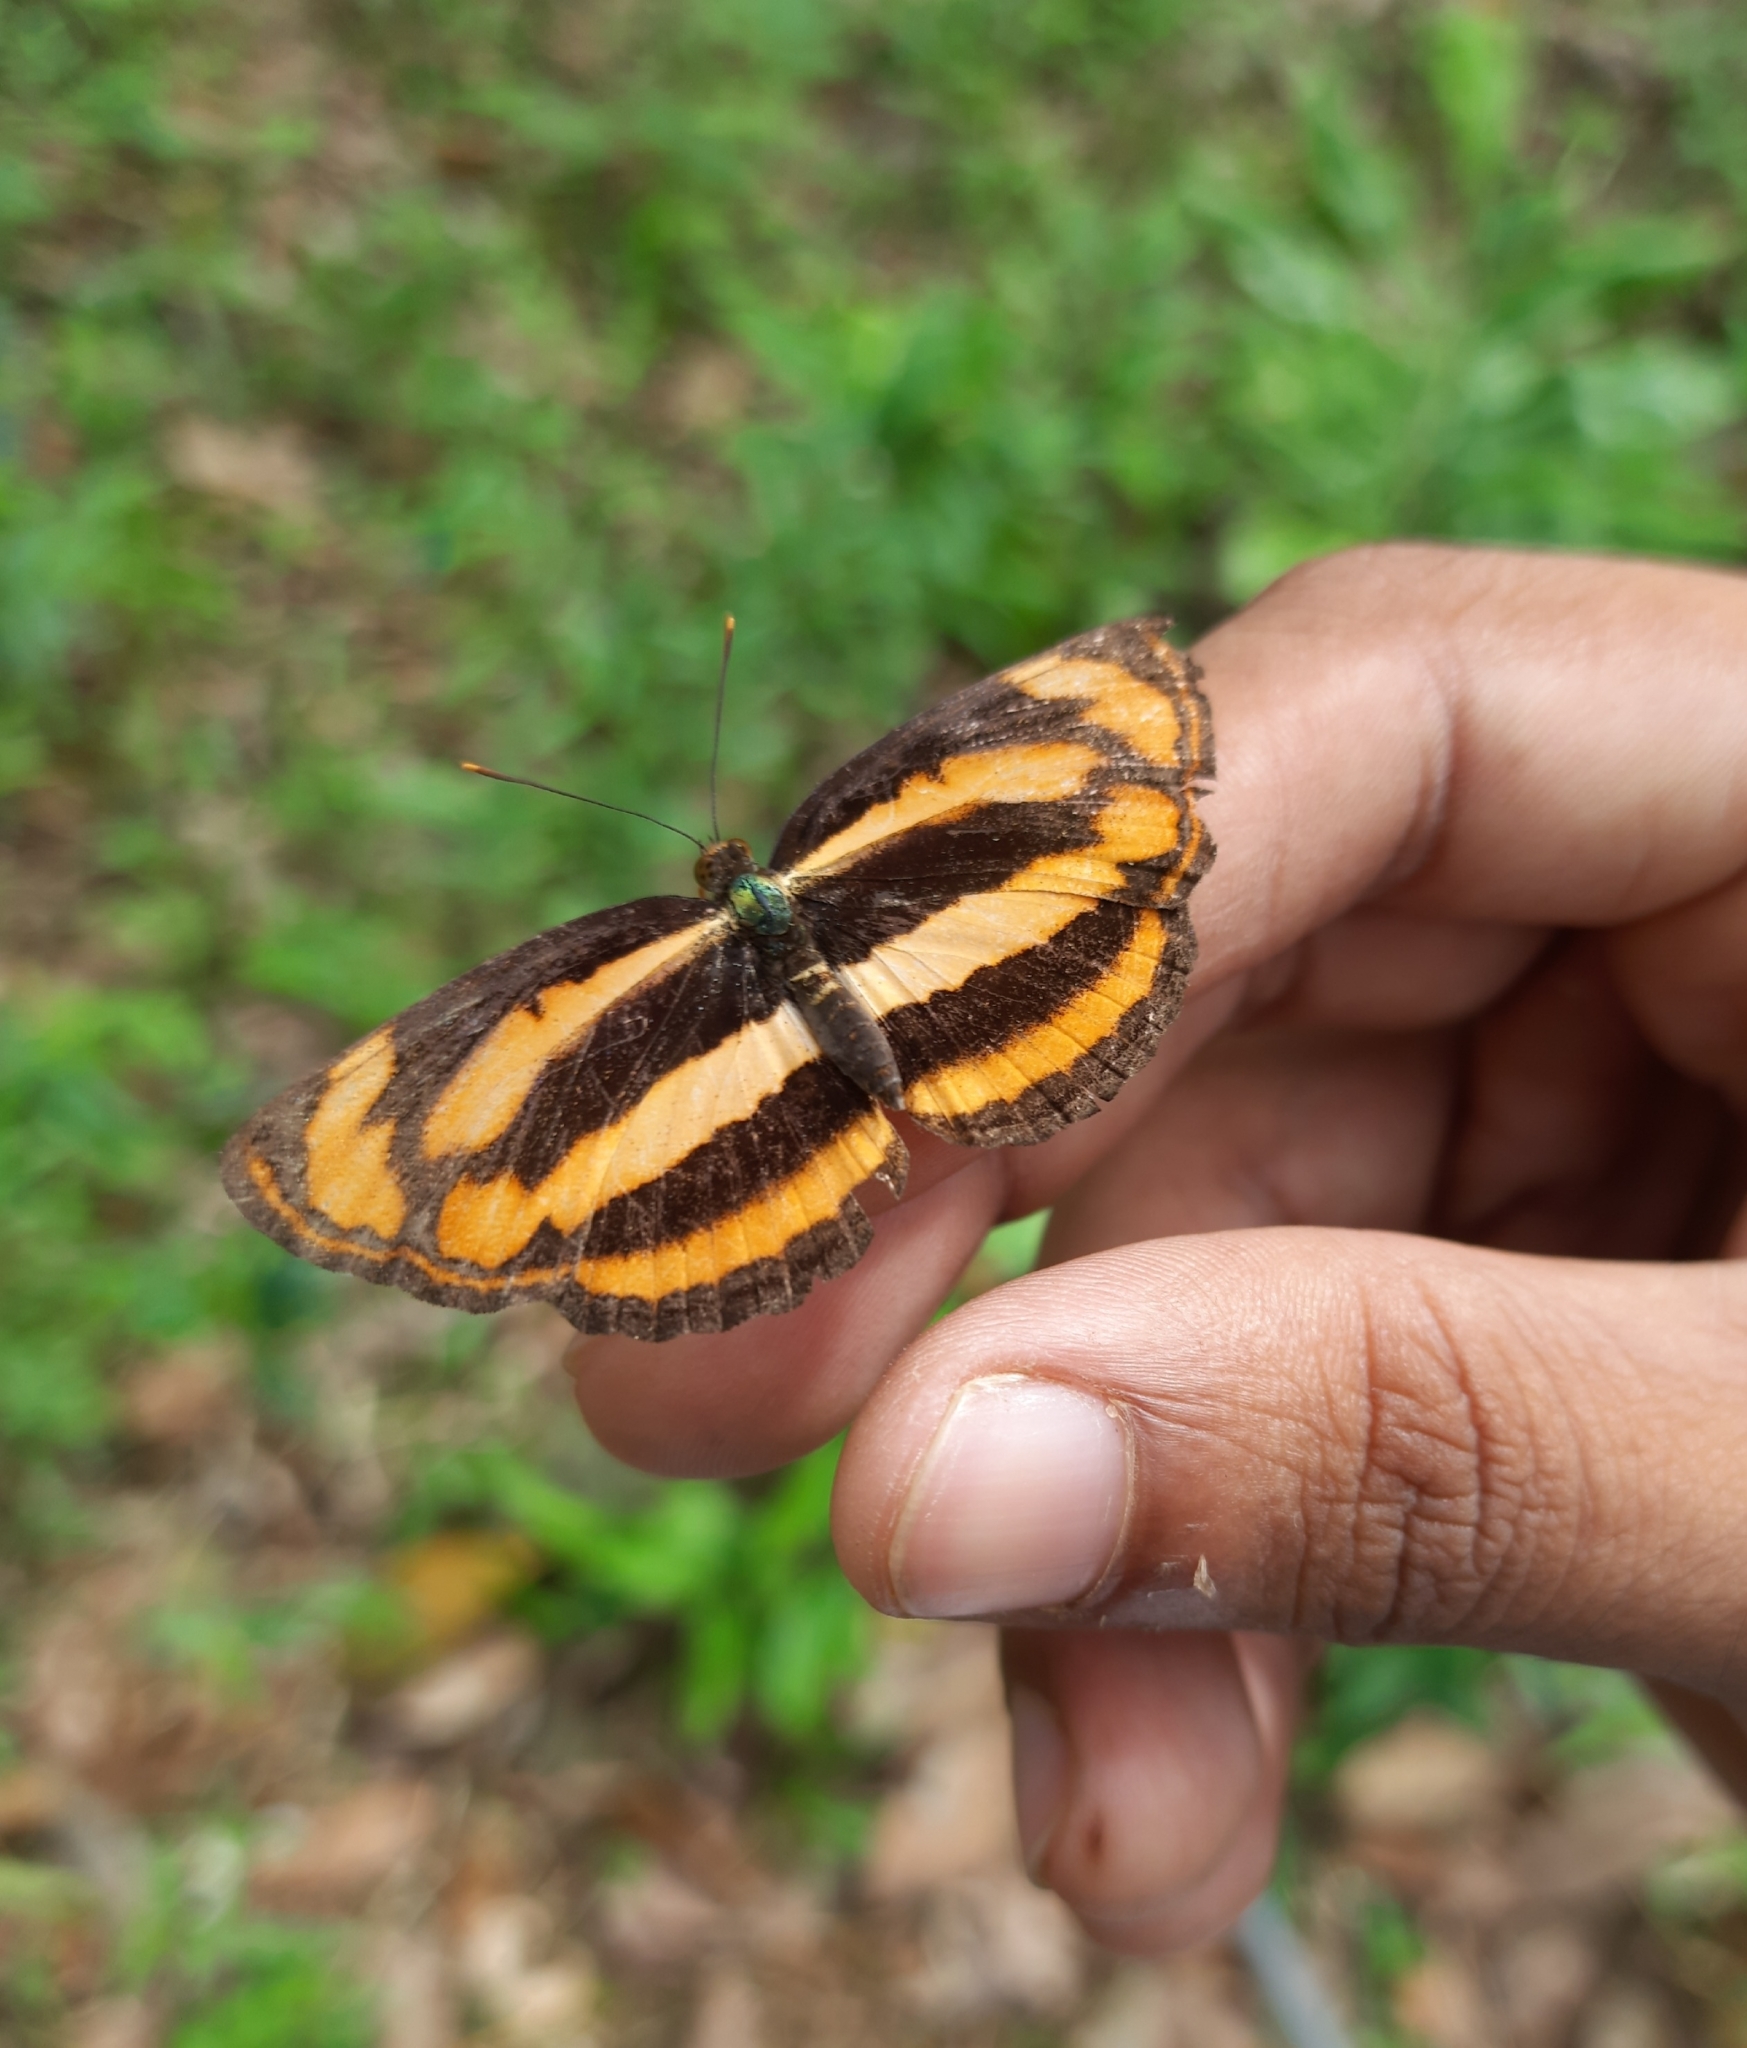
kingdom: Animalia
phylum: Arthropoda
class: Insecta
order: Lepidoptera
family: Nymphalidae
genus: Pantoporia
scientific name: Pantoporia hordonia
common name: Common lascar
